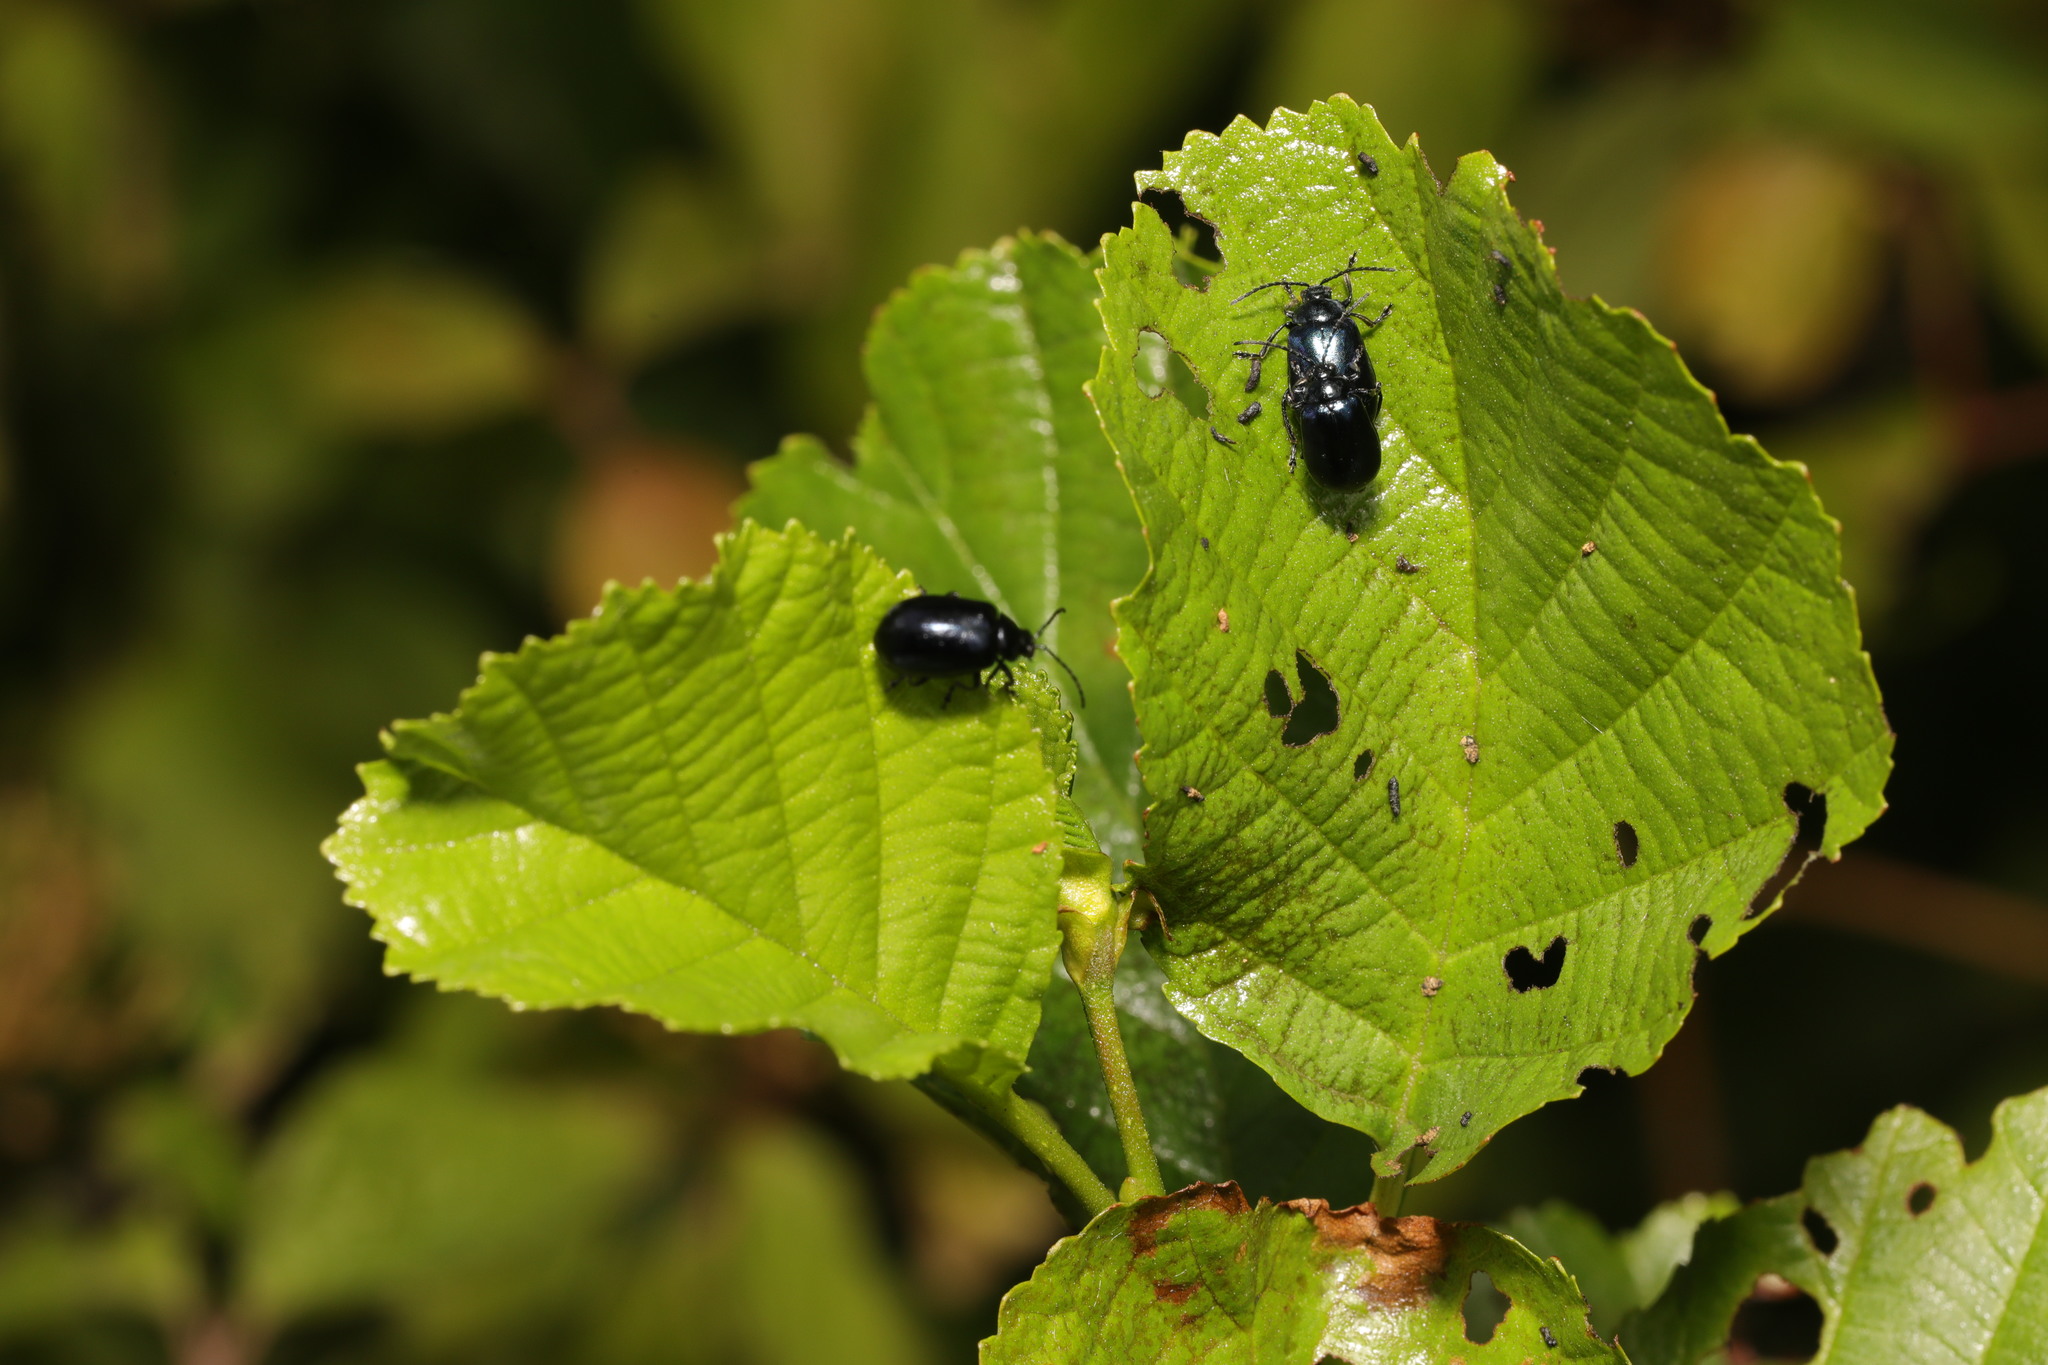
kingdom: Plantae
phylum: Tracheophyta
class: Magnoliopsida
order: Fagales
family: Betulaceae
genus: Alnus
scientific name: Alnus glutinosa
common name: Black alder
